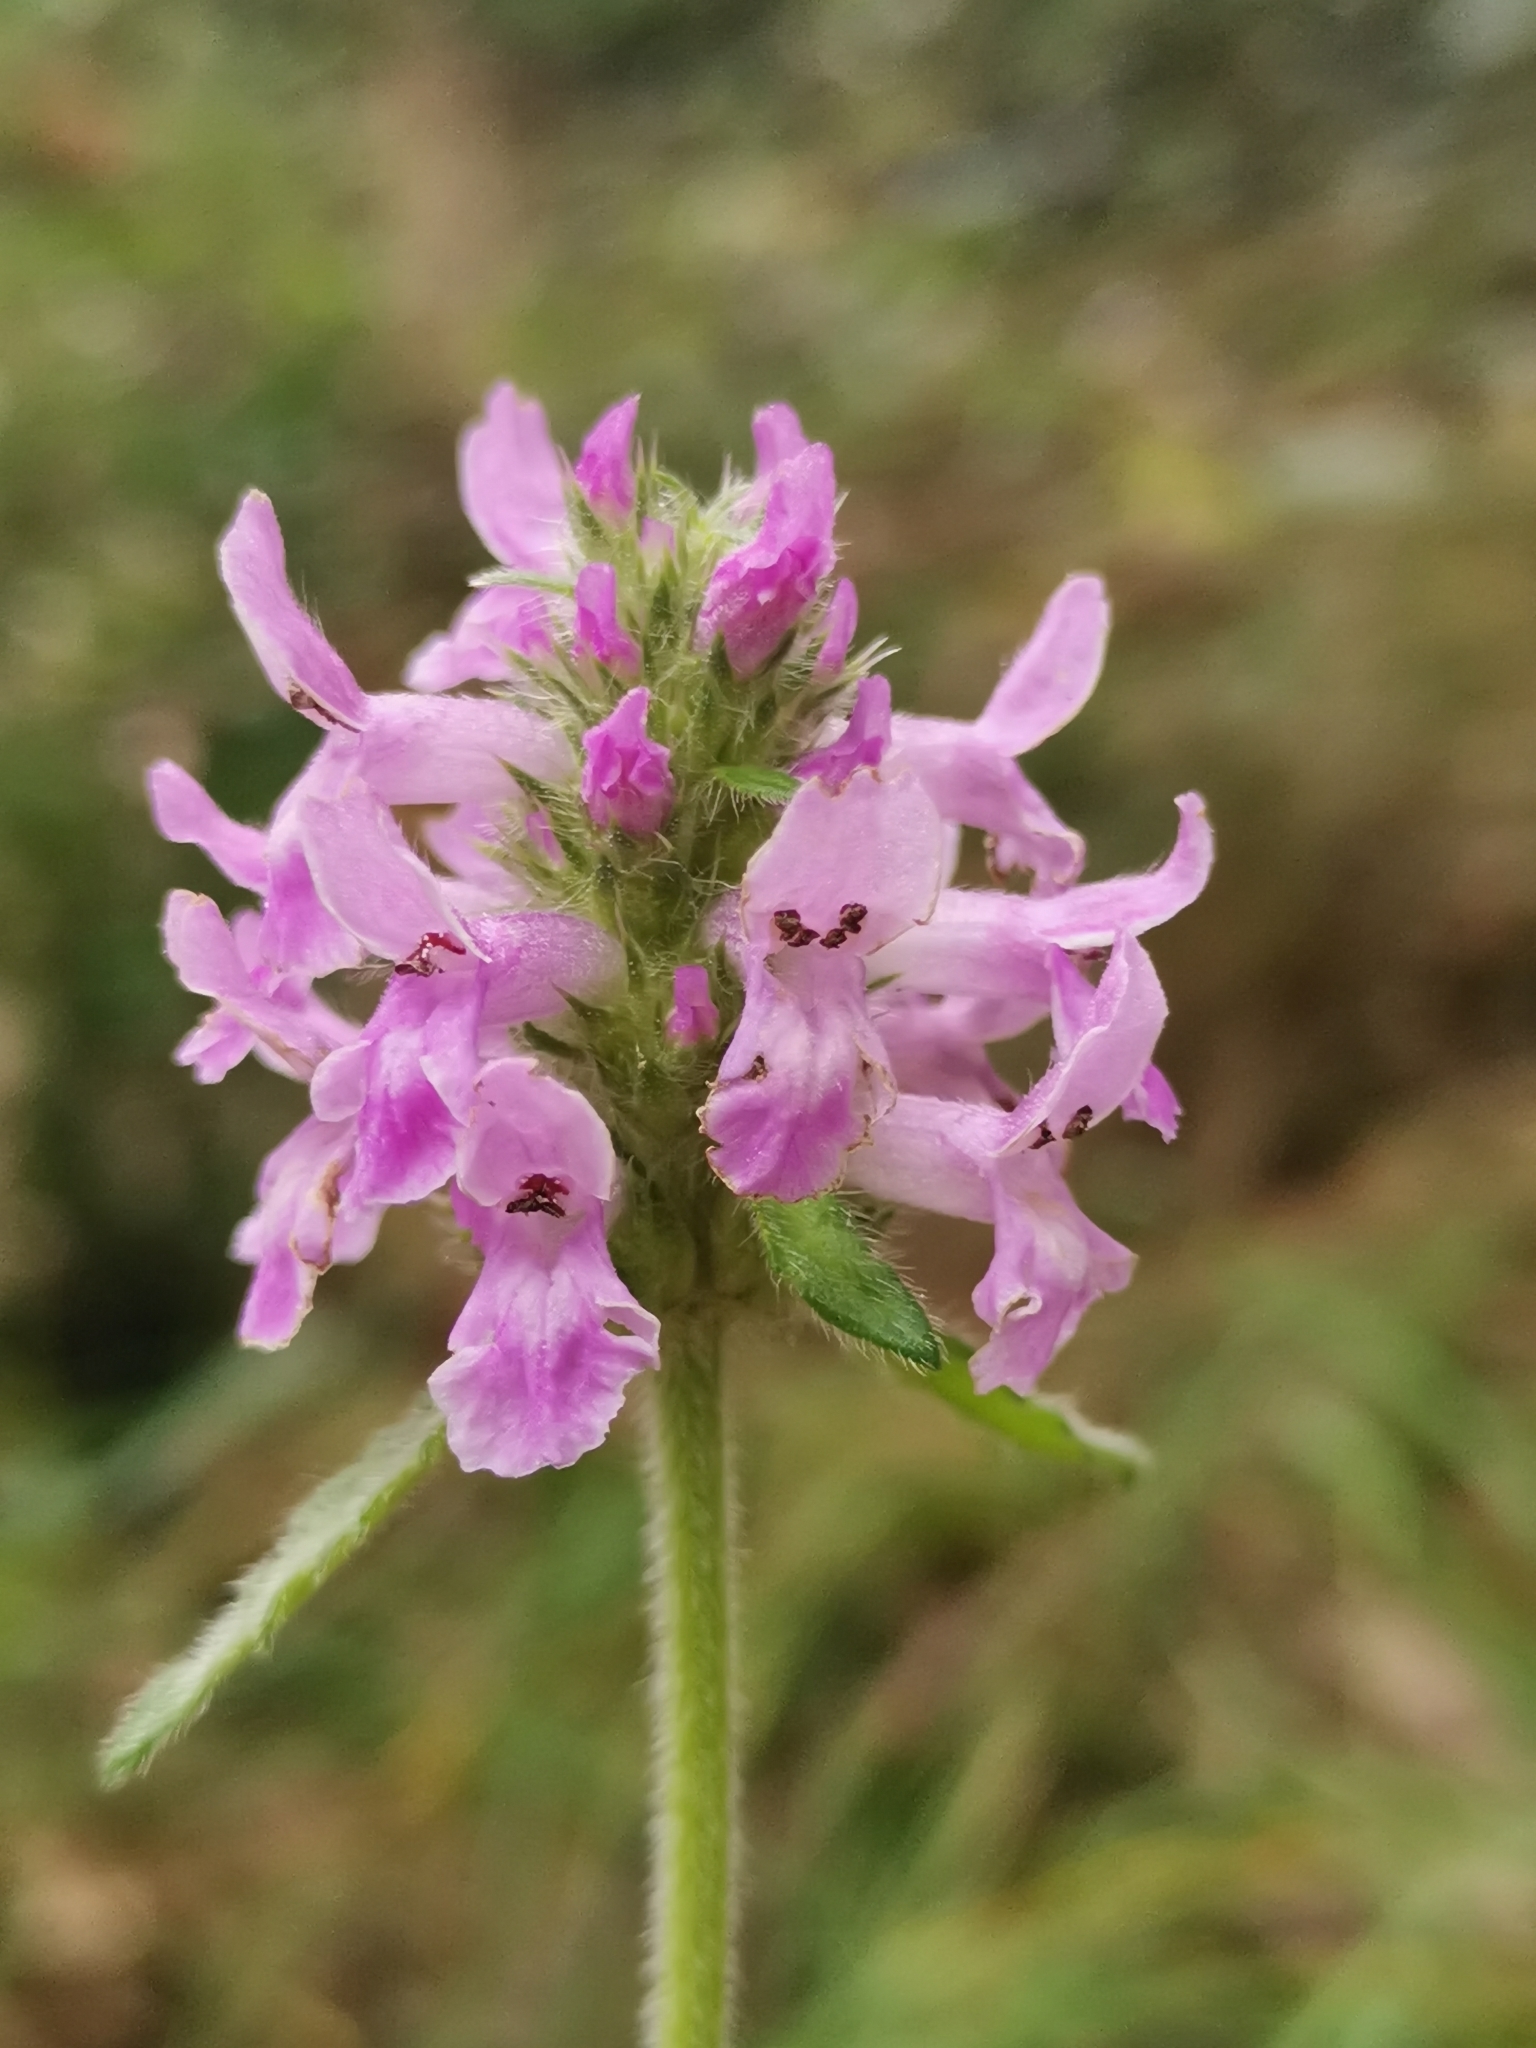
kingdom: Plantae
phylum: Tracheophyta
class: Magnoliopsida
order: Lamiales
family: Lamiaceae
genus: Betonica
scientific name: Betonica officinalis
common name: Bishop's-wort
